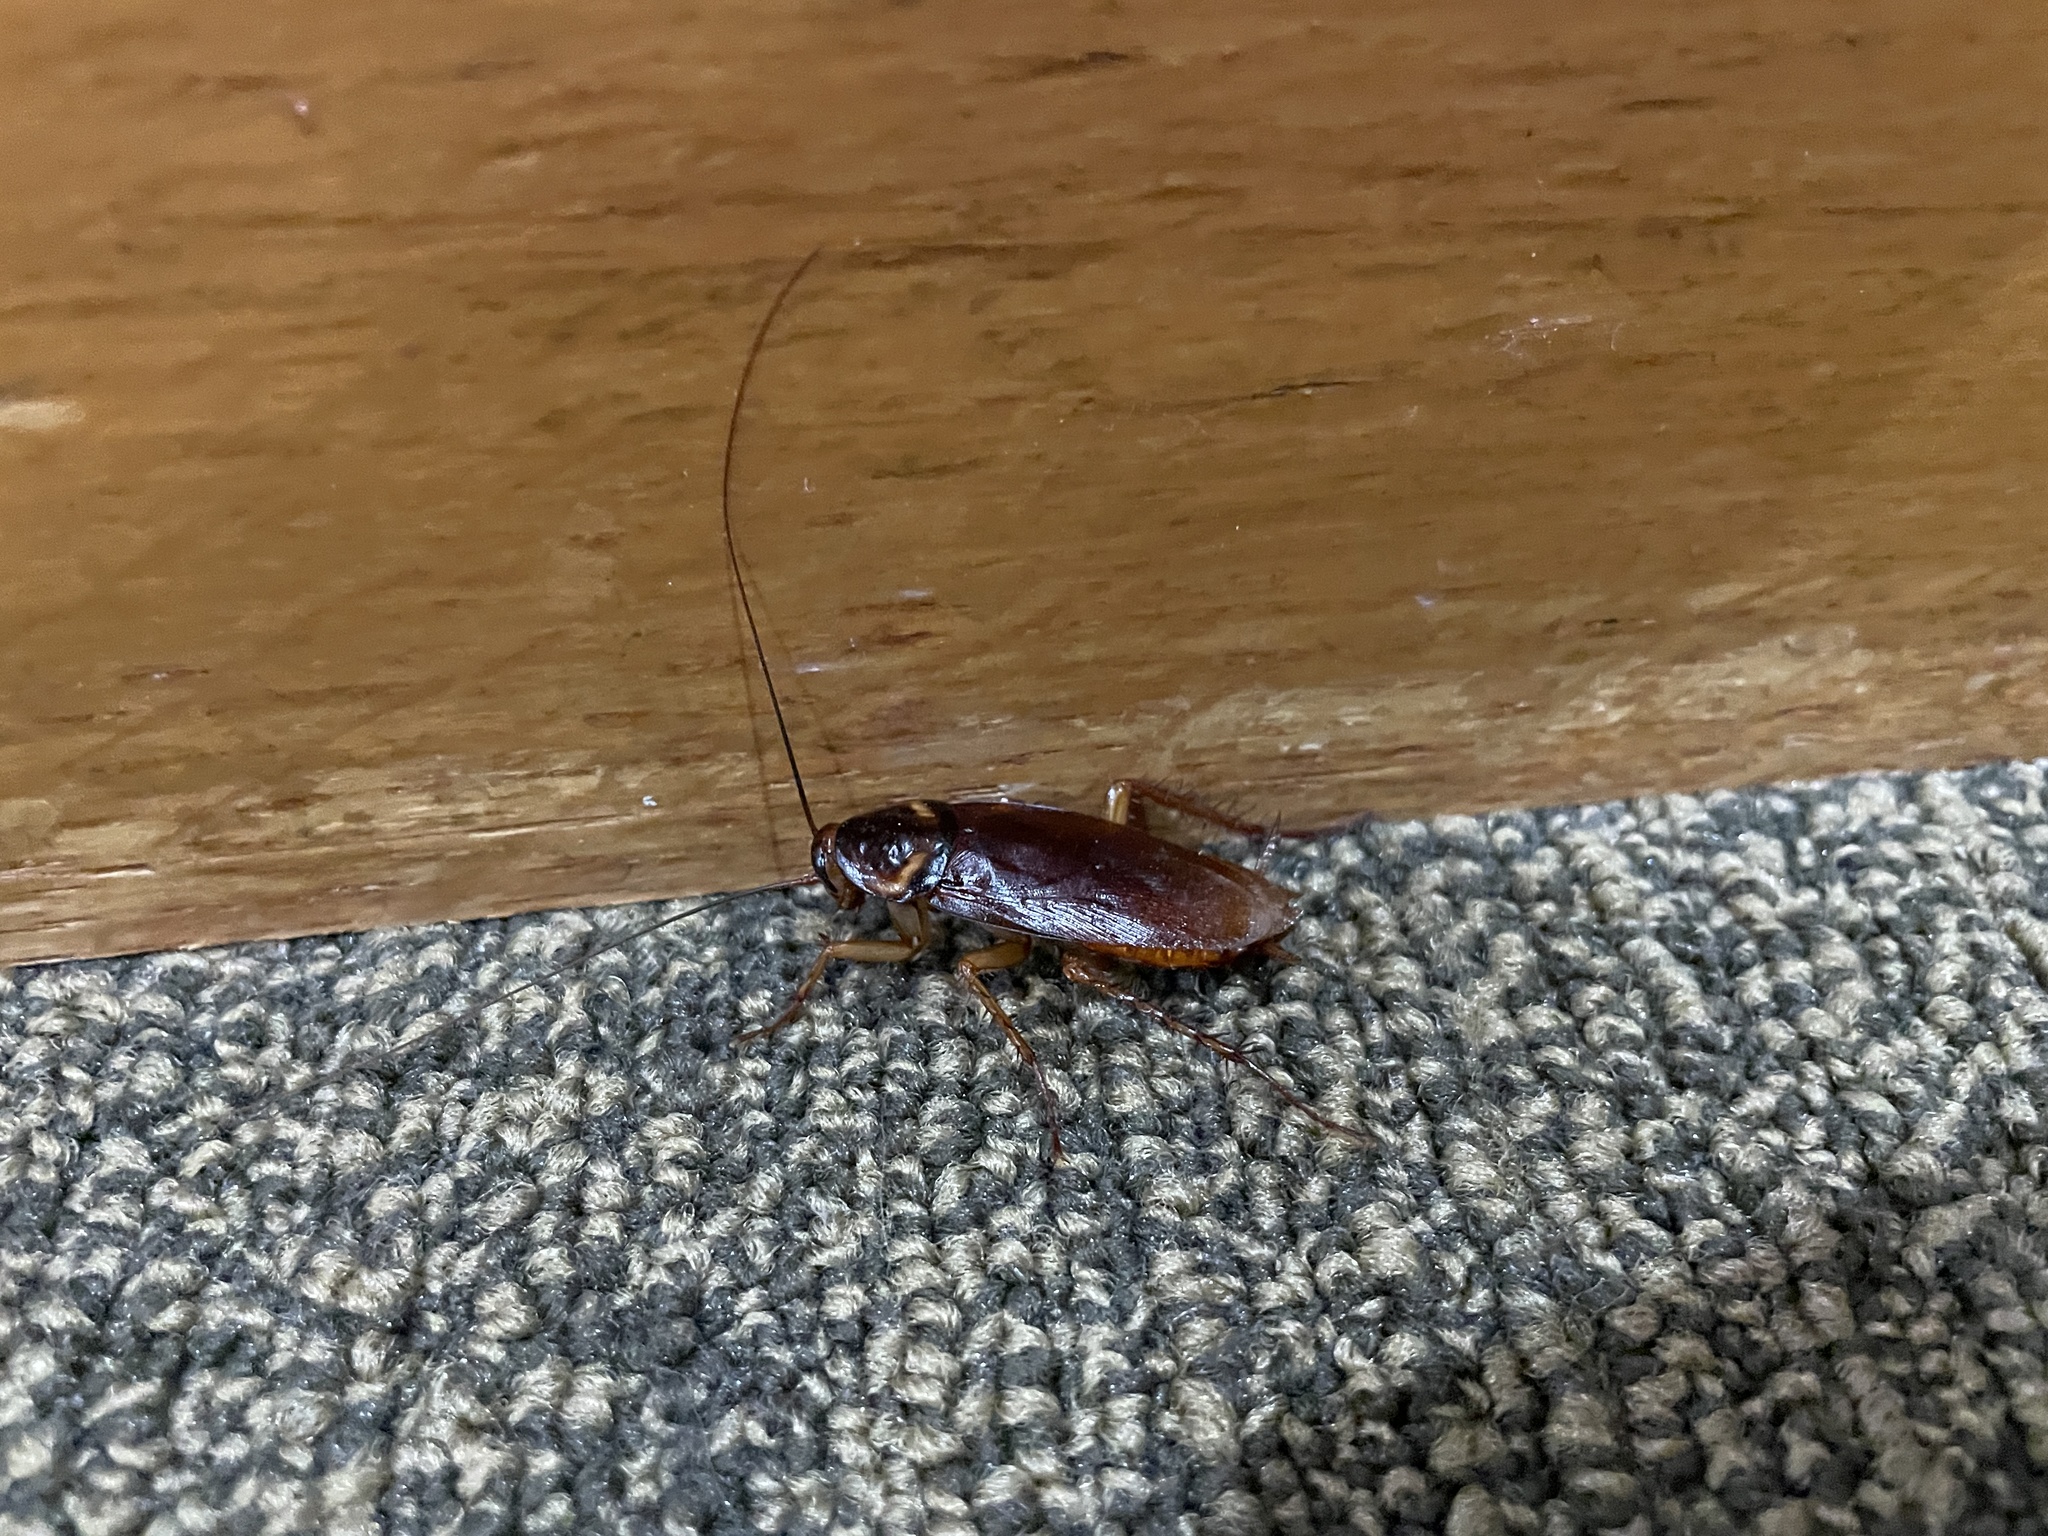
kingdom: Animalia
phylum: Arthropoda
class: Insecta
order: Blattodea
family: Blattidae
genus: Periplaneta
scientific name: Periplaneta americana
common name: American cockroach
